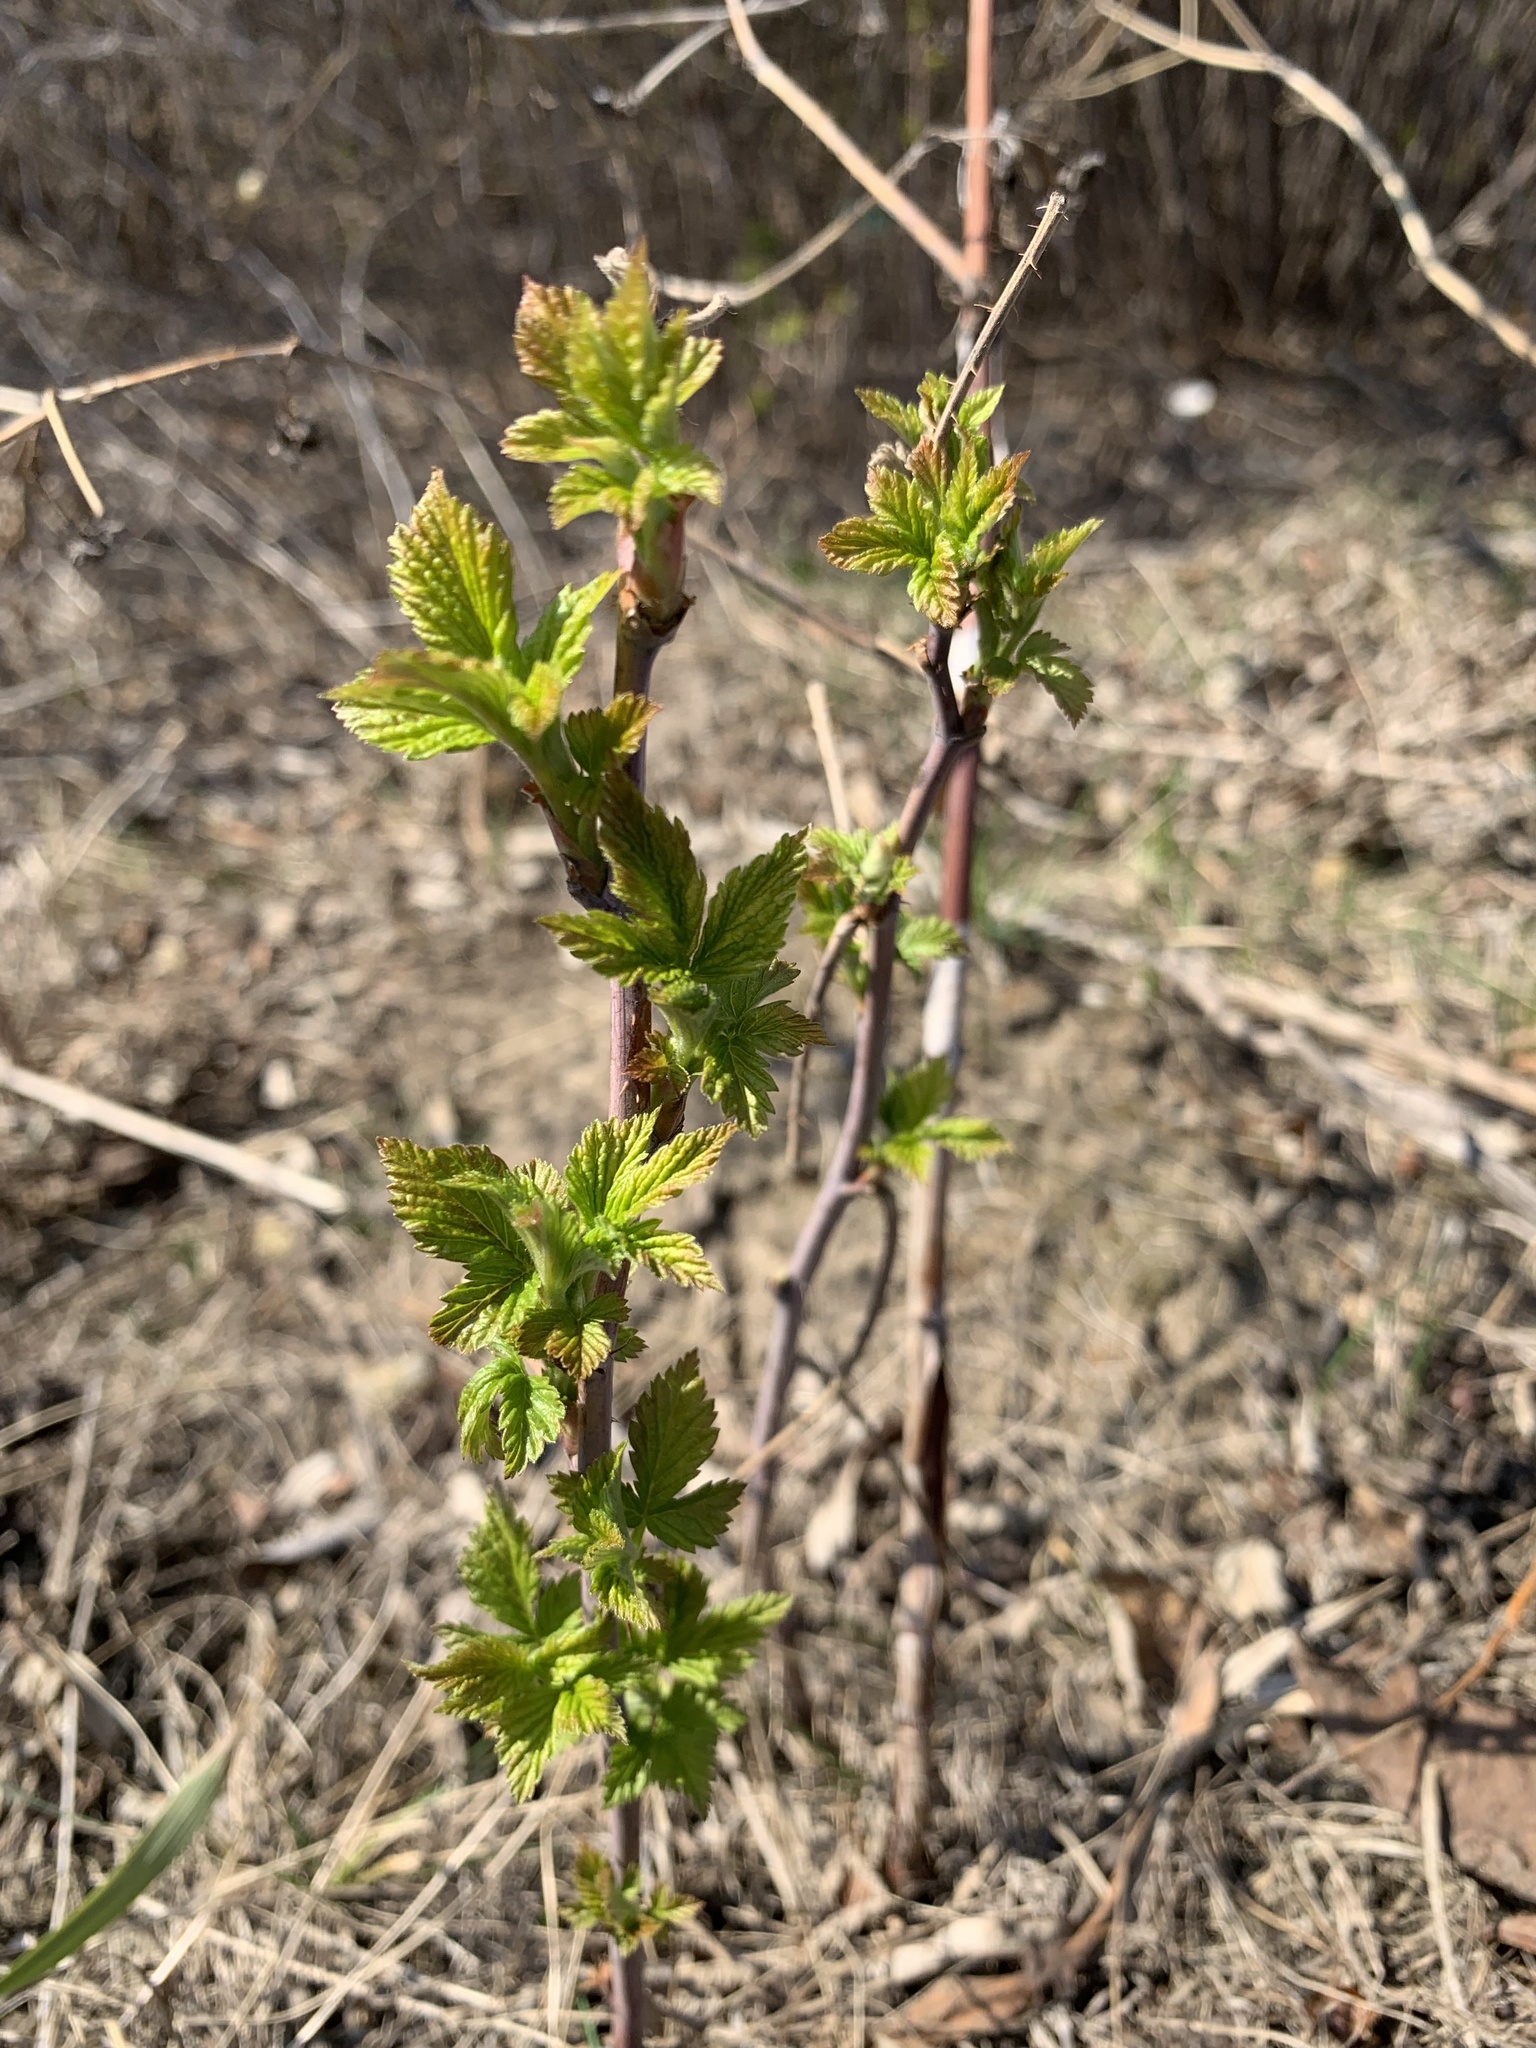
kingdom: Plantae
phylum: Tracheophyta
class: Magnoliopsida
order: Rosales
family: Rosaceae
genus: Rubus
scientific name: Rubus idaeus
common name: Raspberry
